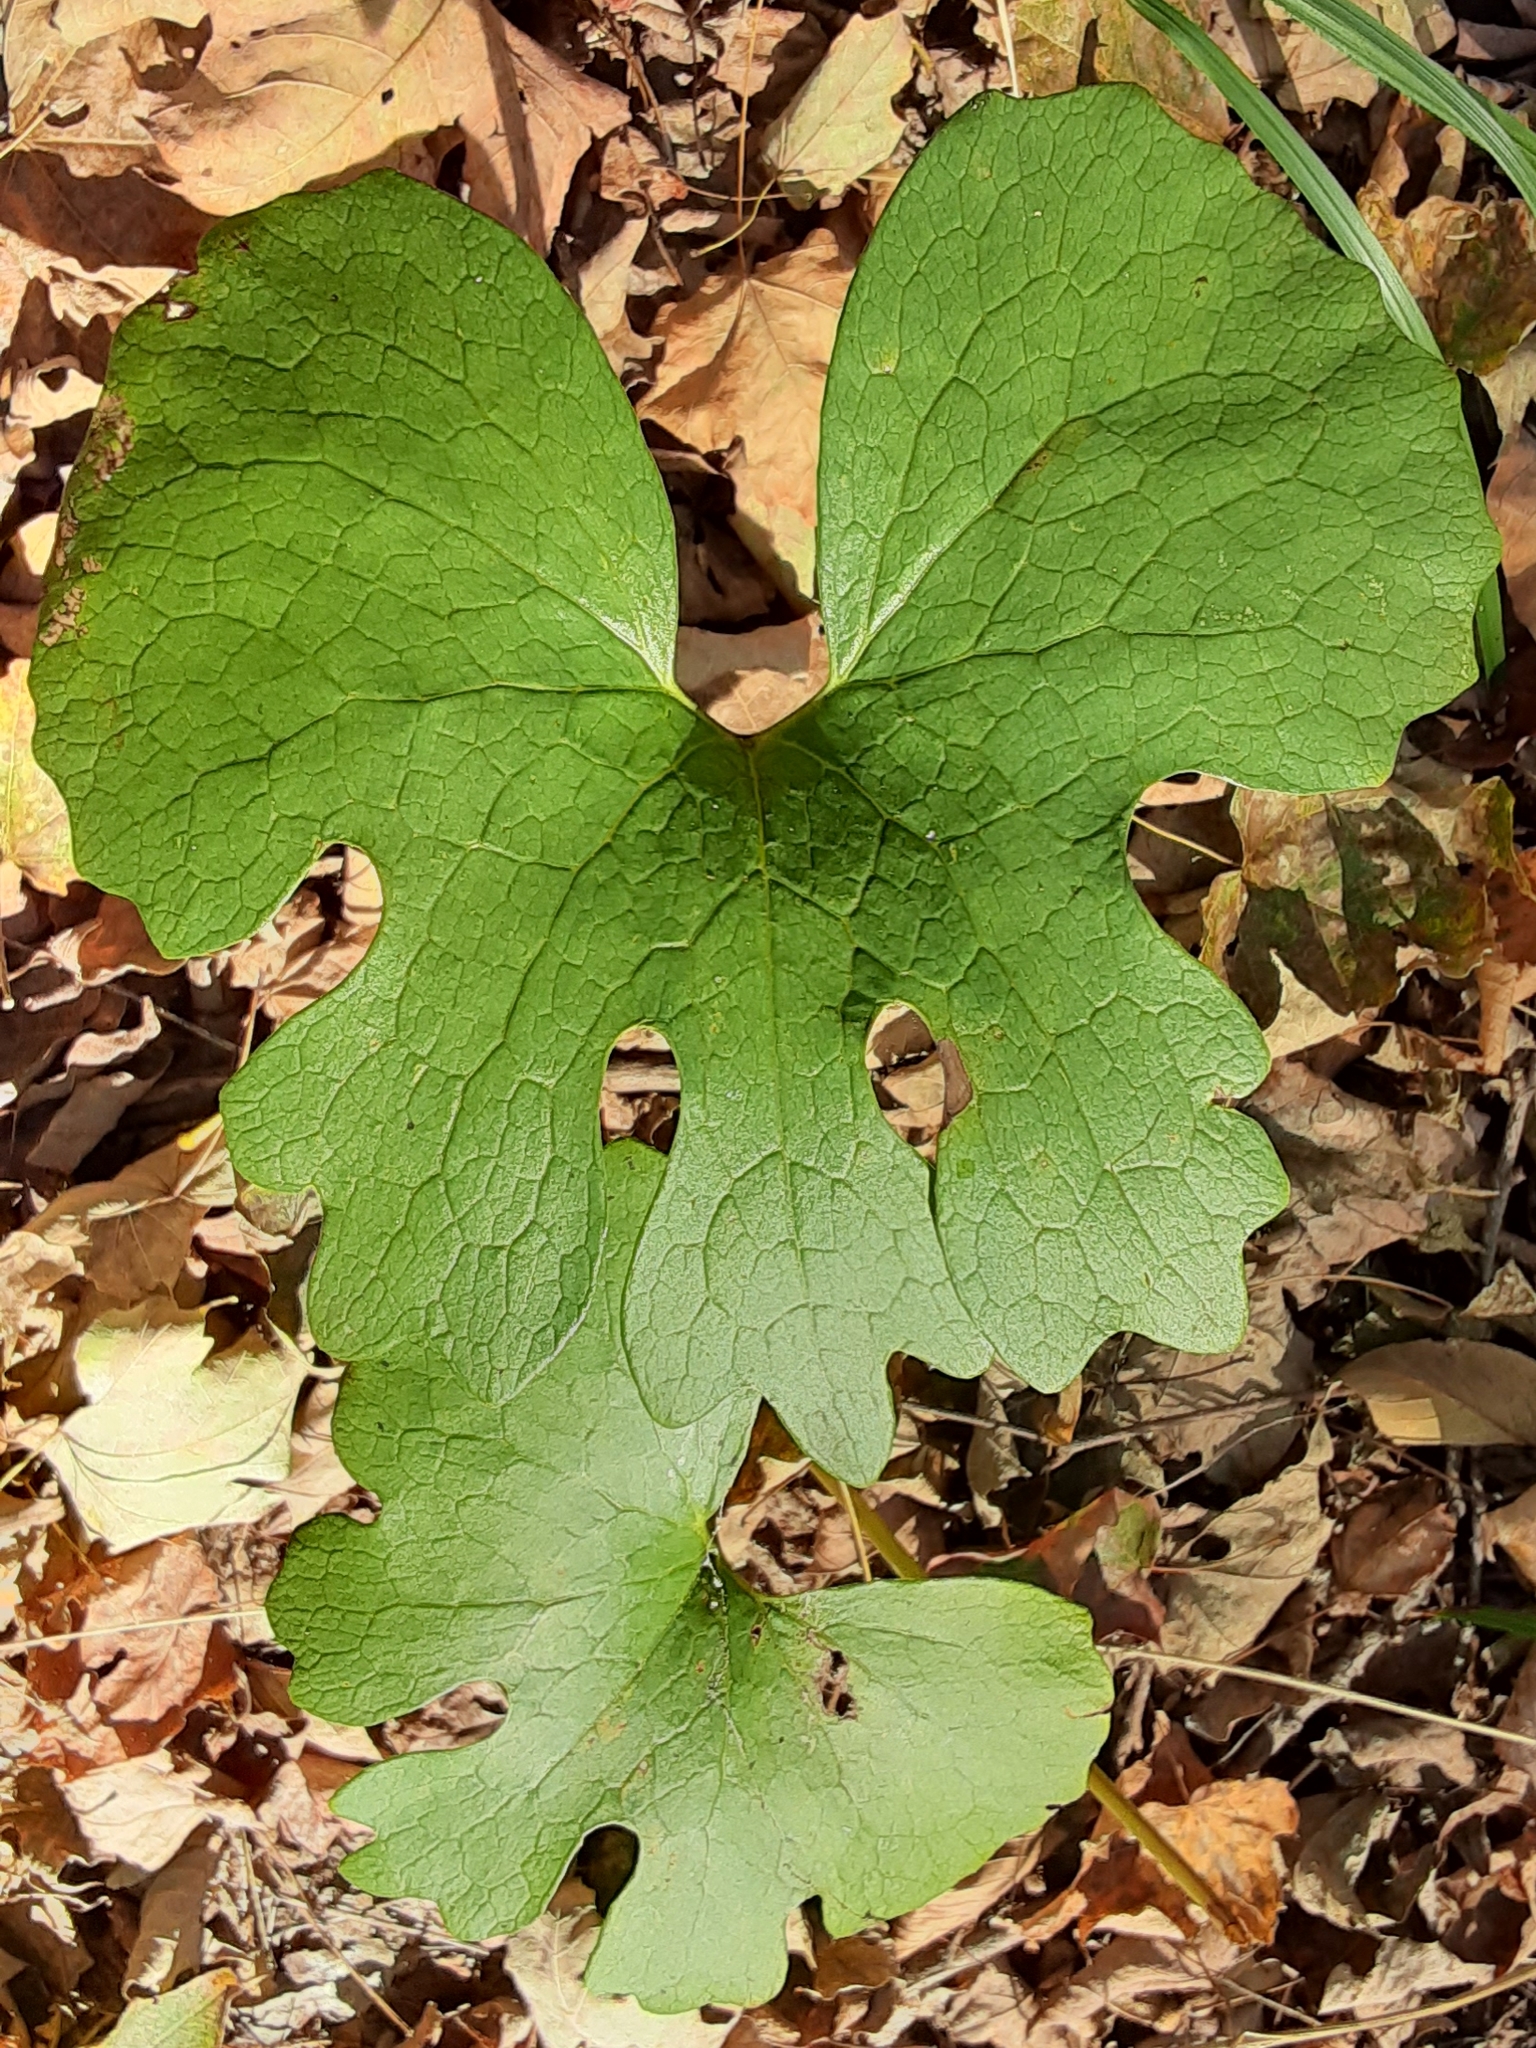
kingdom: Plantae
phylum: Tracheophyta
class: Magnoliopsida
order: Ranunculales
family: Papaveraceae
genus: Sanguinaria
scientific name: Sanguinaria canadensis
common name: Bloodroot
